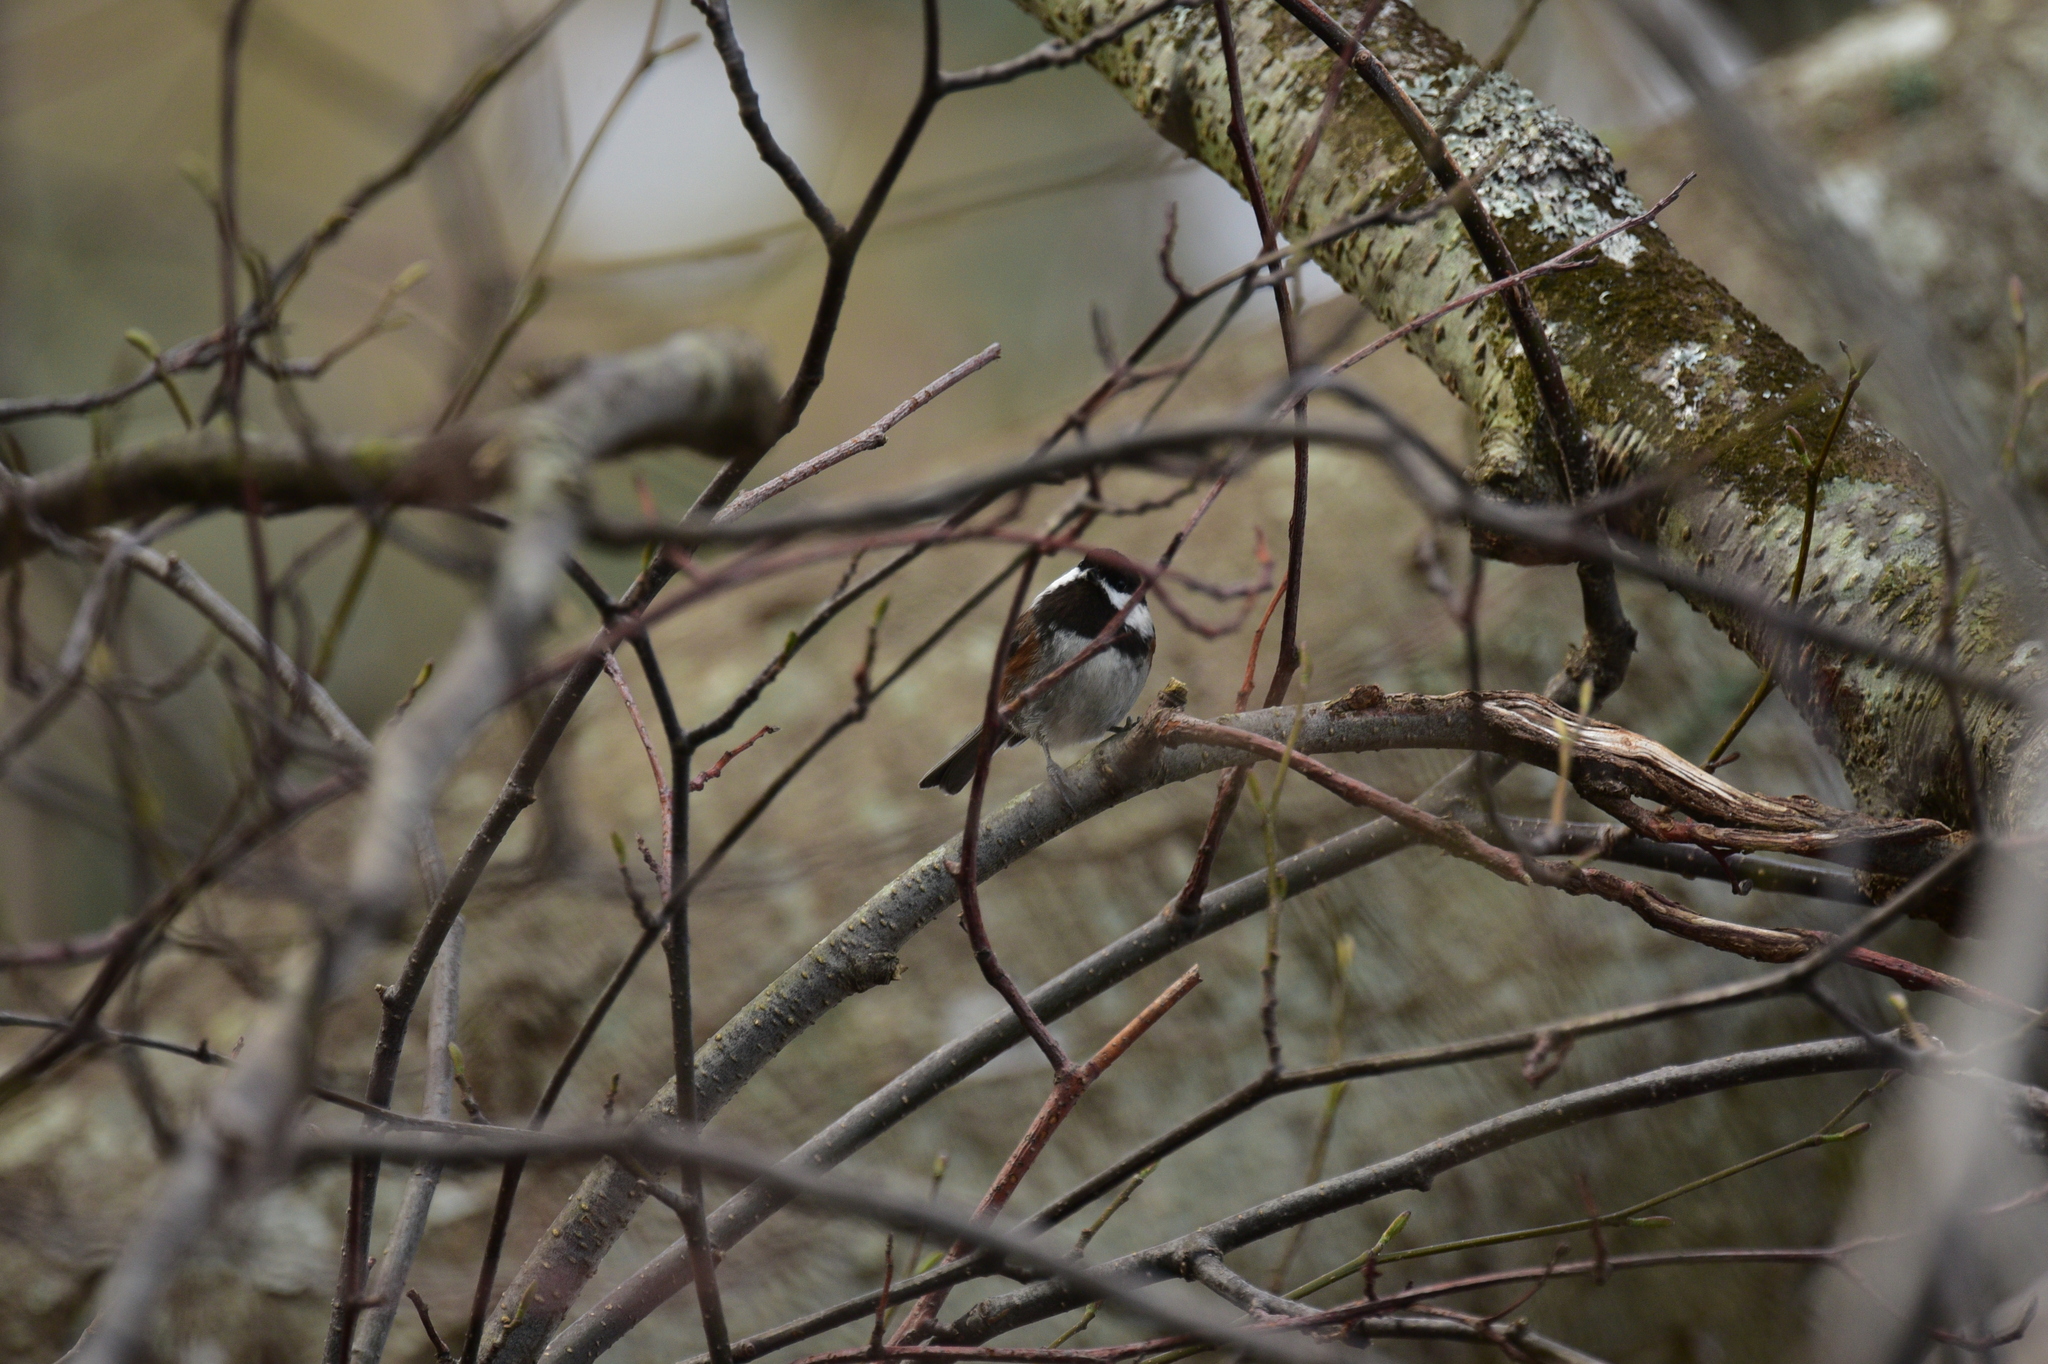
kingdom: Animalia
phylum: Chordata
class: Aves
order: Passeriformes
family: Paridae
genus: Poecile
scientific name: Poecile rufescens
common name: Chestnut-backed chickadee
